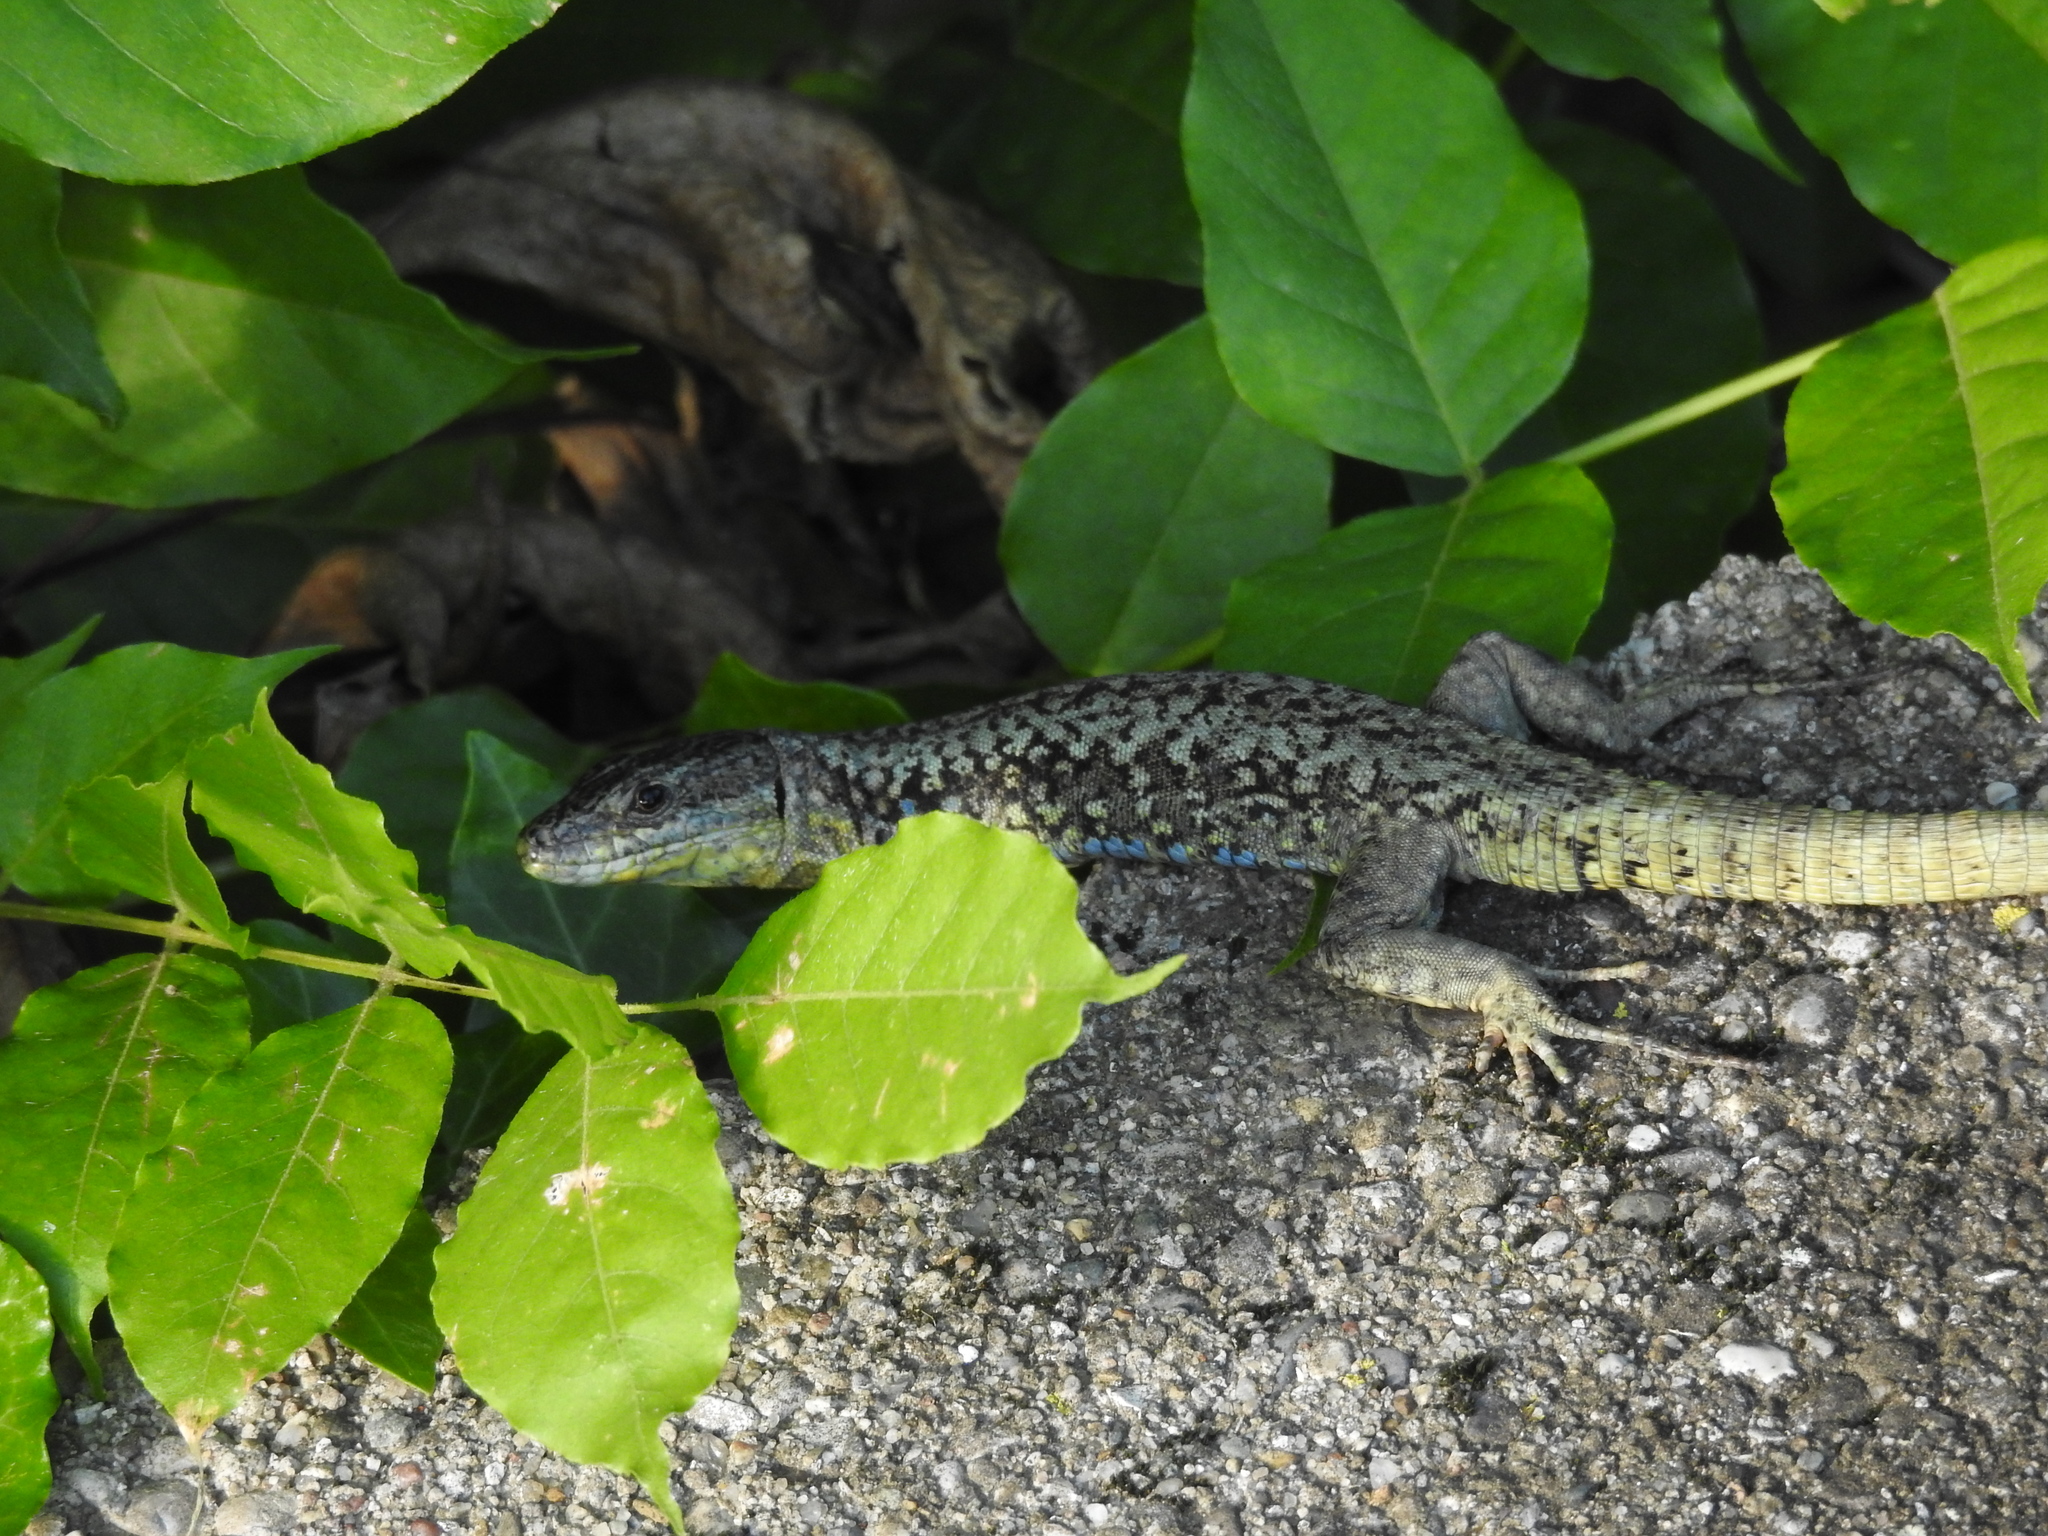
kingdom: Animalia
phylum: Chordata
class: Squamata
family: Lacertidae
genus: Podarcis
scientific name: Podarcis muralis
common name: Common wall lizard
